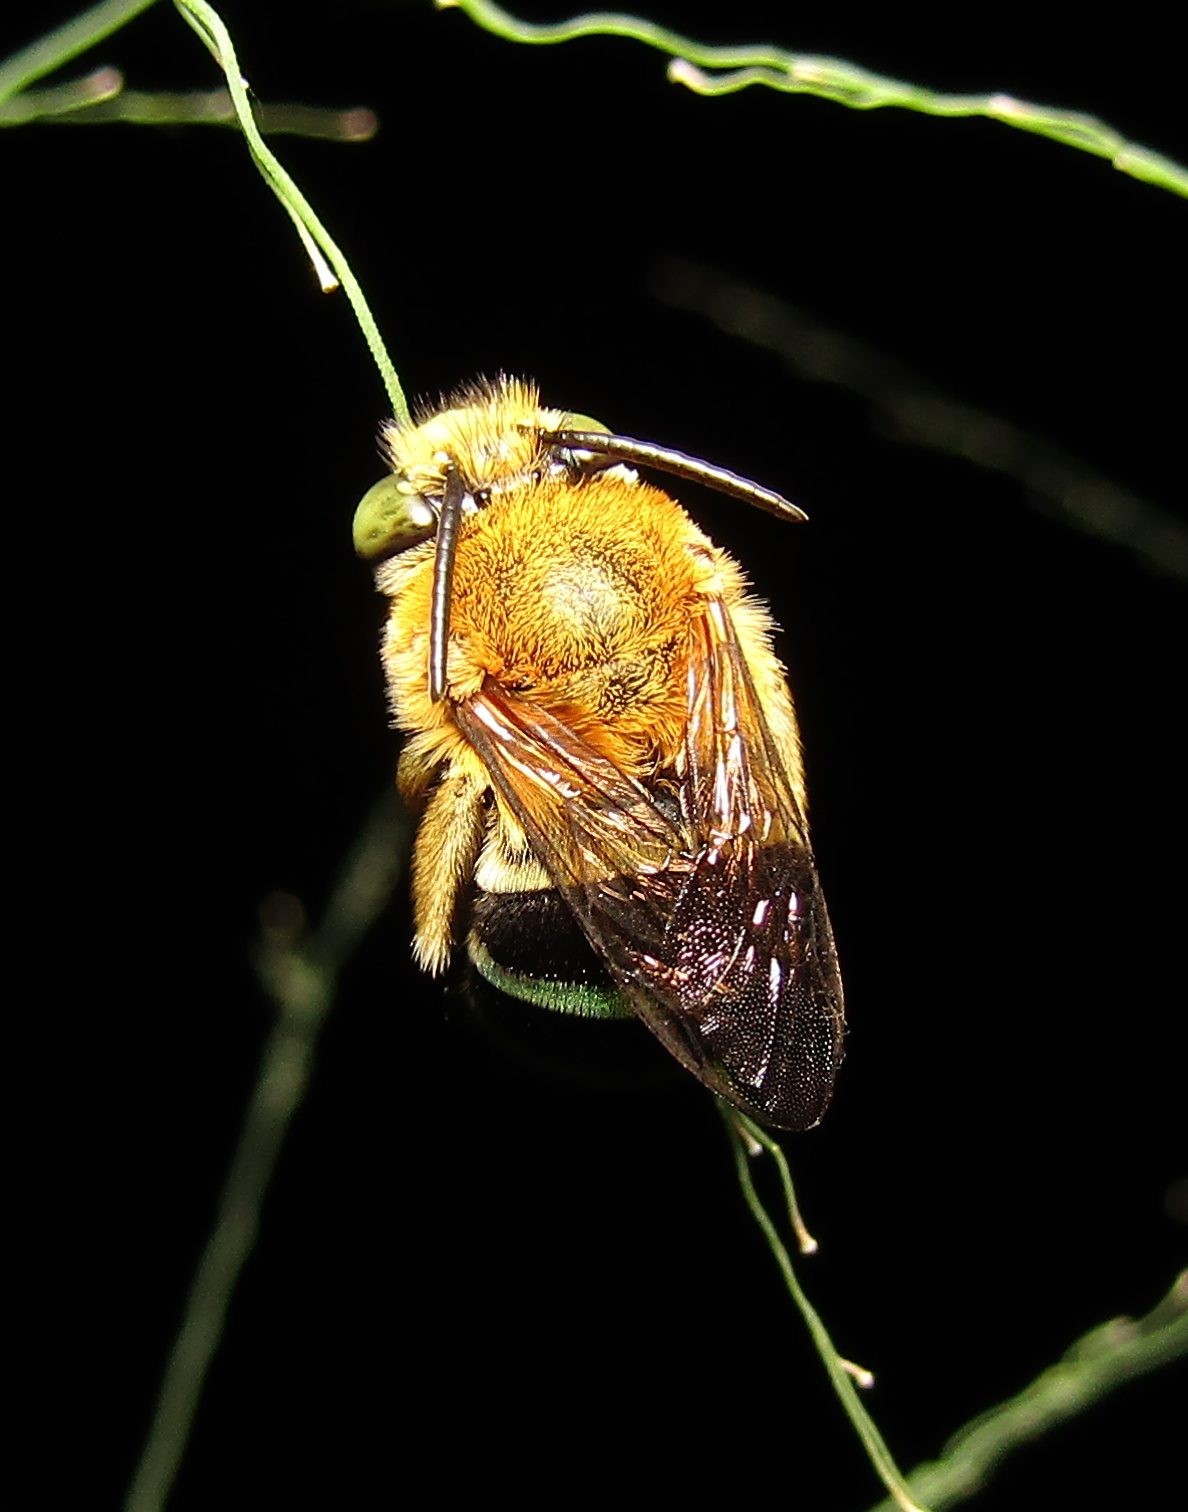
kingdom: Animalia
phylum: Arthropoda
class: Insecta
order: Hymenoptera
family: Apidae
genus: Amegilla
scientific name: Amegilla cingulata
